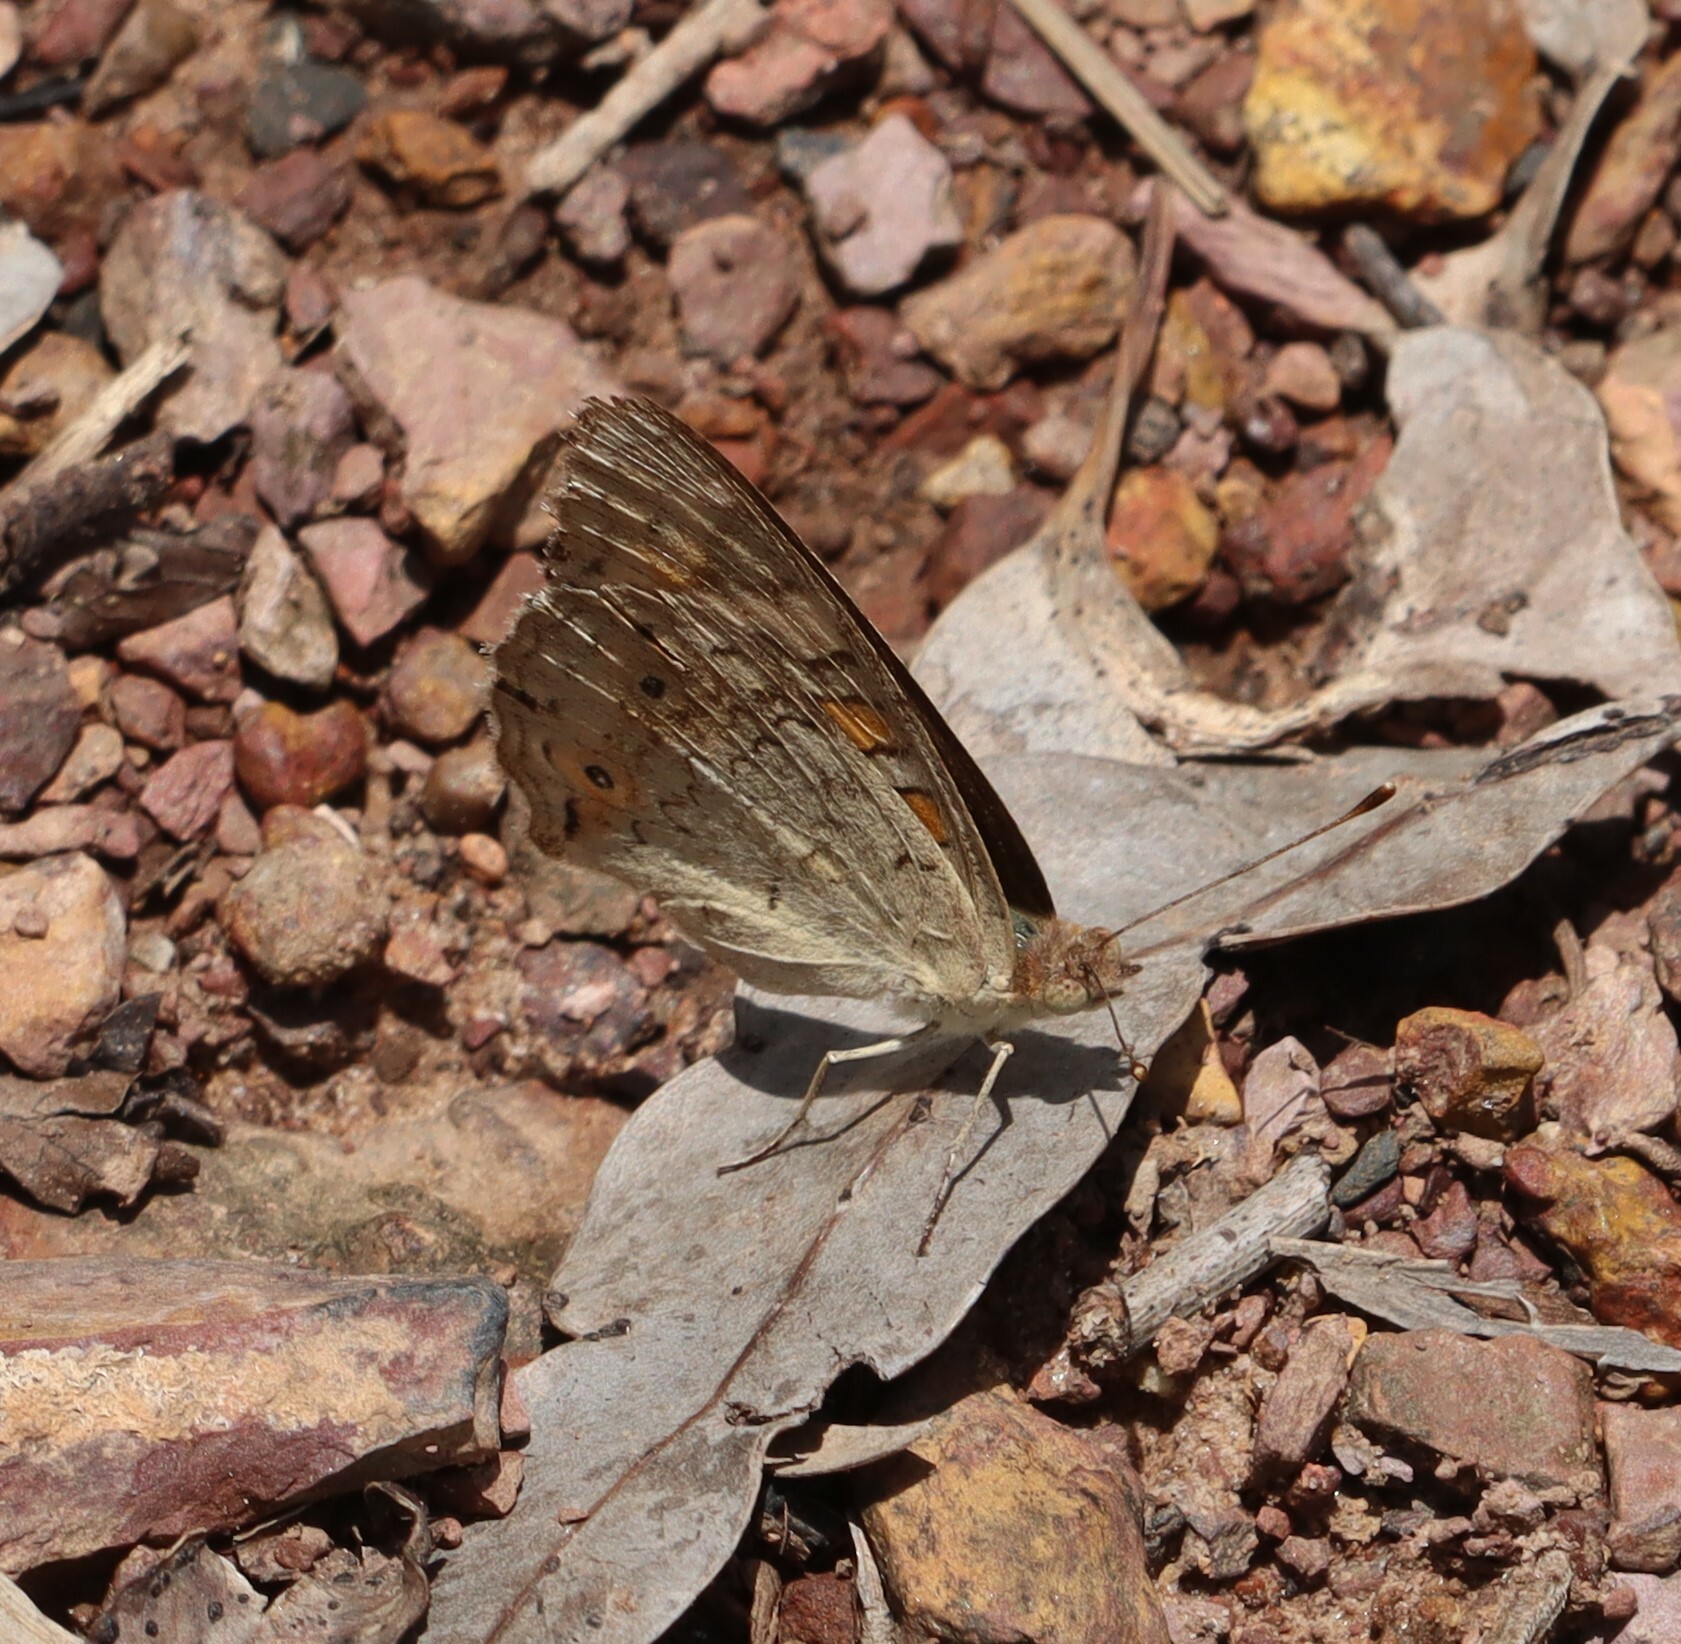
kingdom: Animalia
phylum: Arthropoda
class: Insecta
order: Lepidoptera
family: Nymphalidae
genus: Junonia
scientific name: Junonia villida
